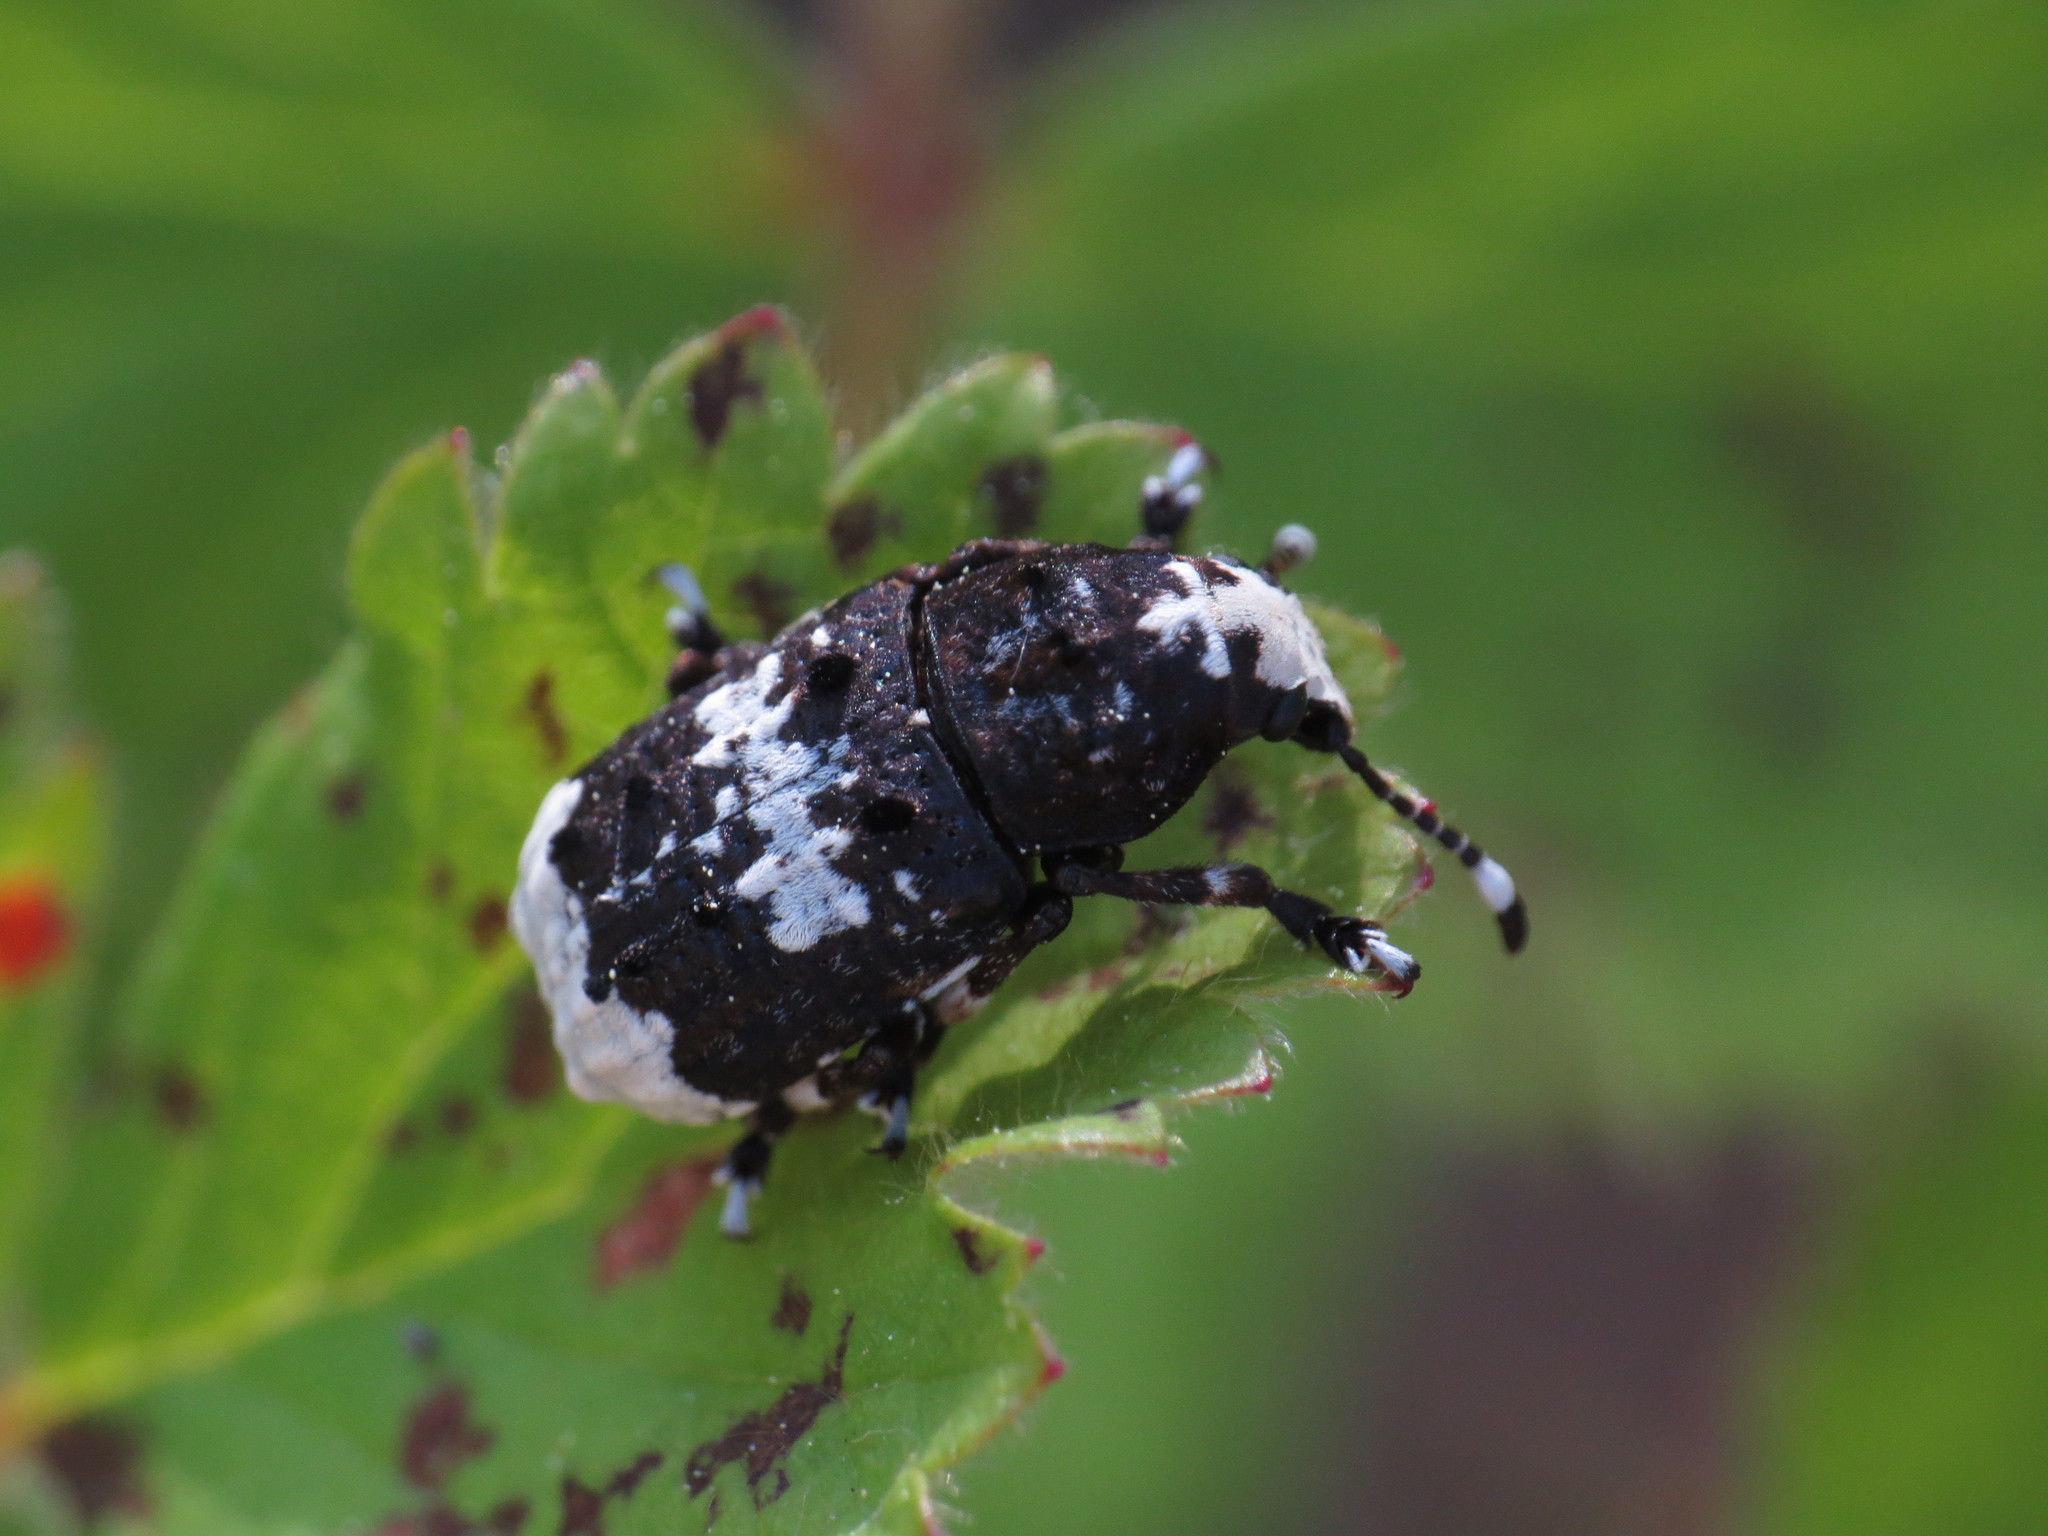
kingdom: Animalia
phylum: Arthropoda
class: Insecta
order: Coleoptera
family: Anthribidae
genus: Platystomos
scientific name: Platystomos albinus
